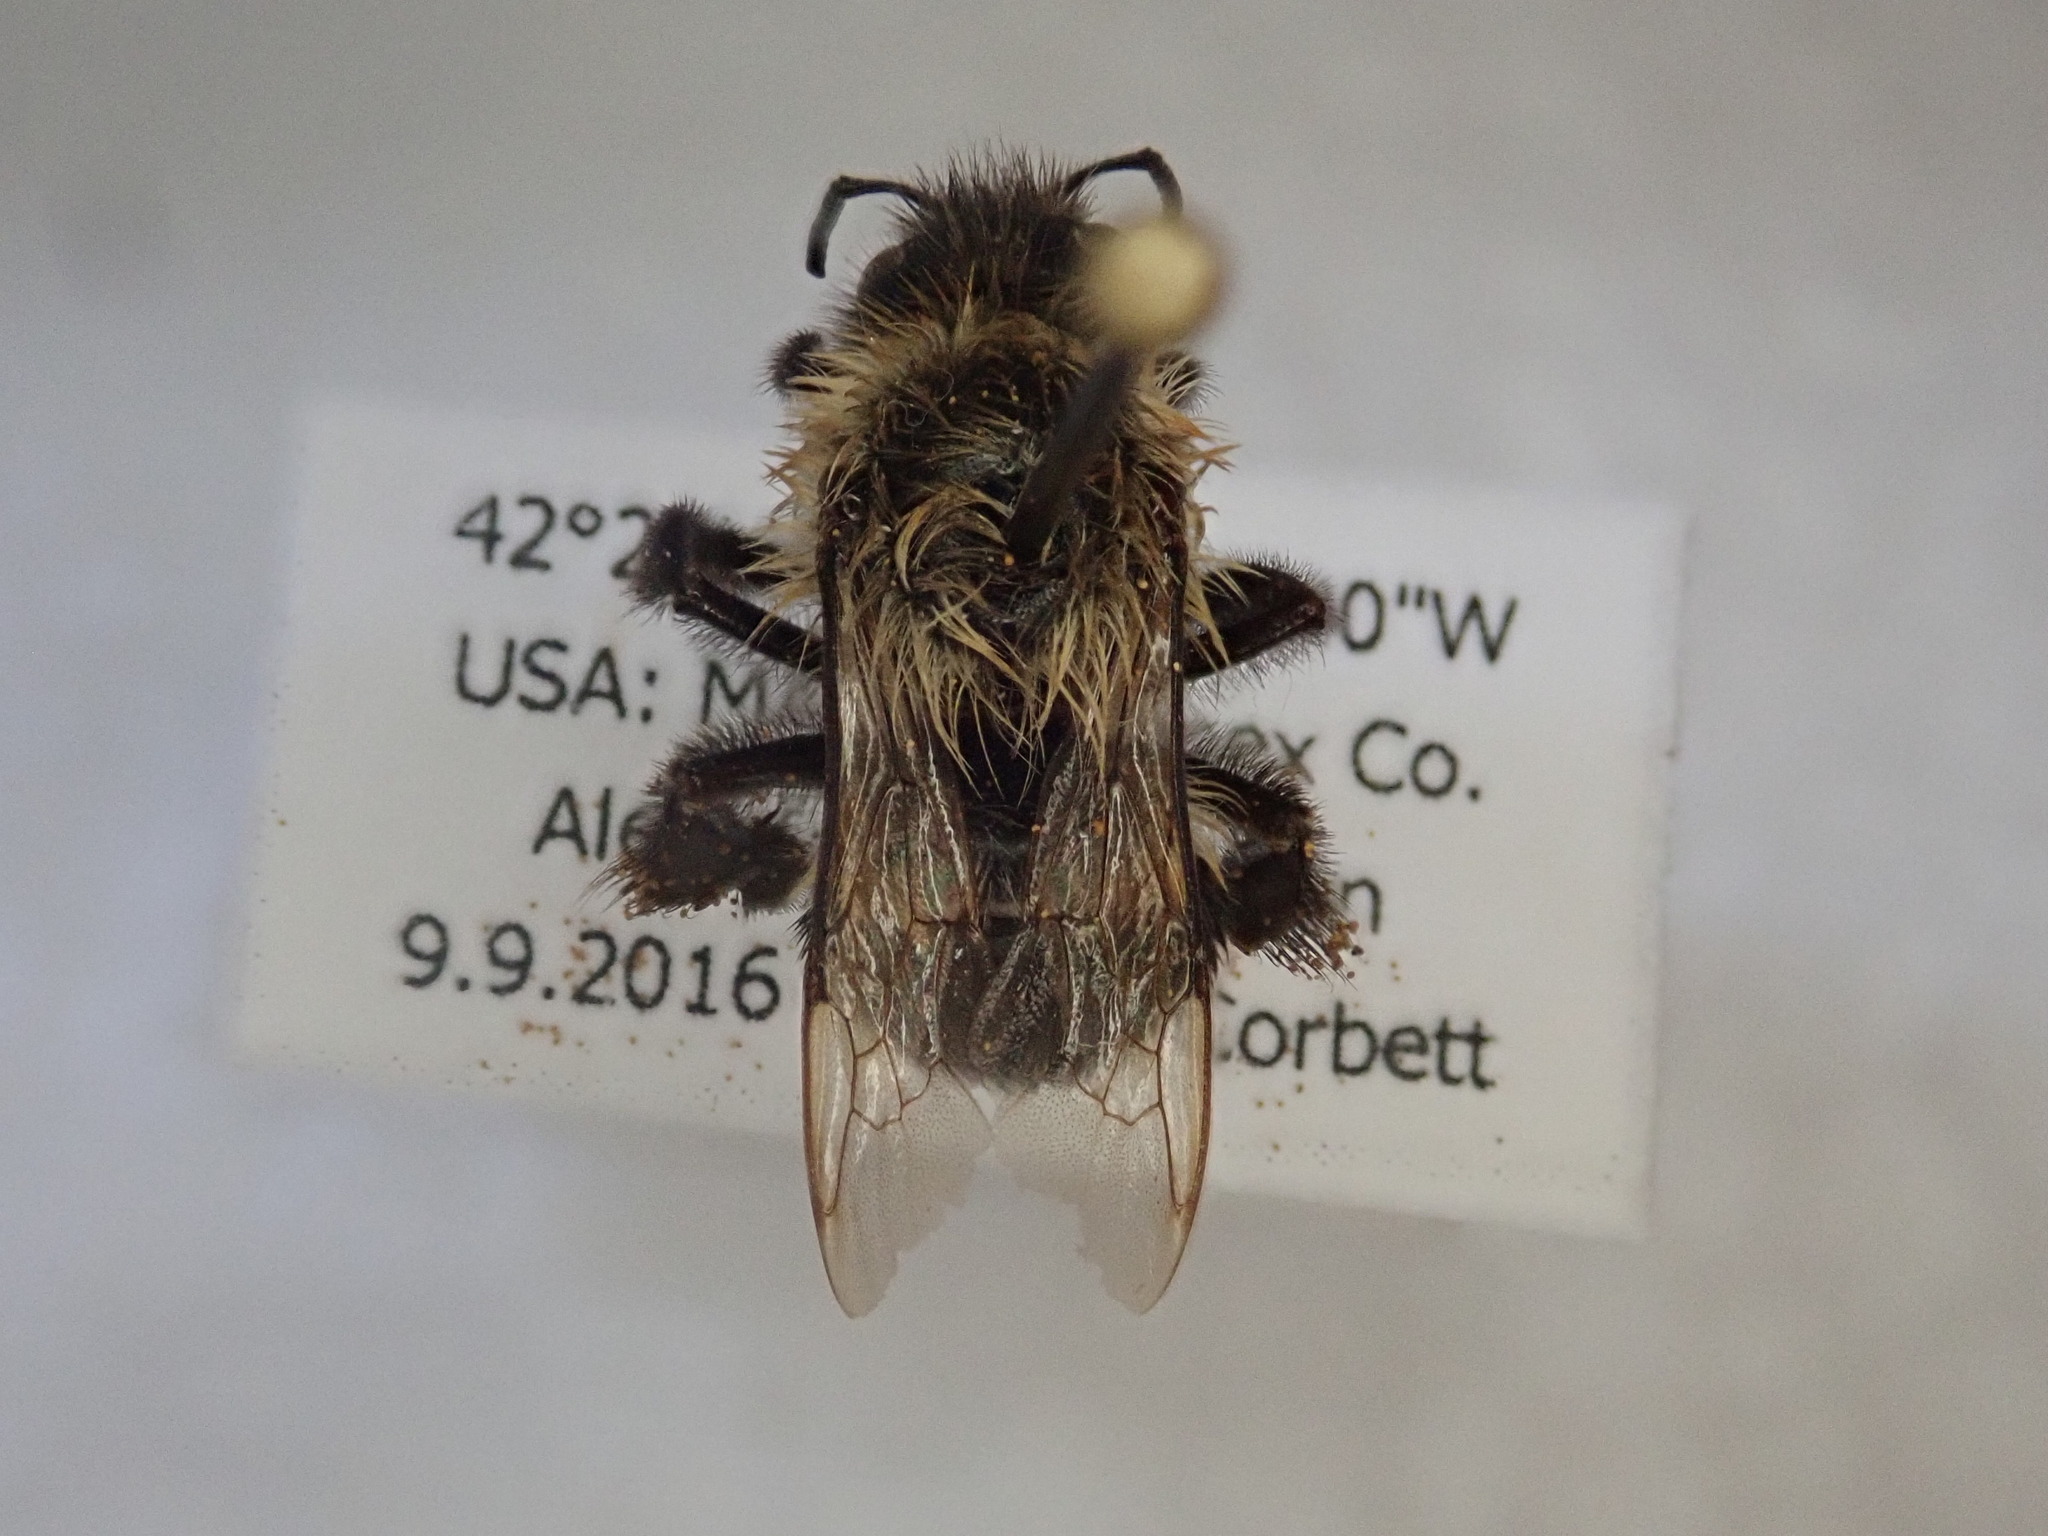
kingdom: Animalia
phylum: Arthropoda
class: Insecta
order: Hymenoptera
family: Apidae
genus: Bombus
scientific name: Bombus impatiens
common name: Common eastern bumble bee
